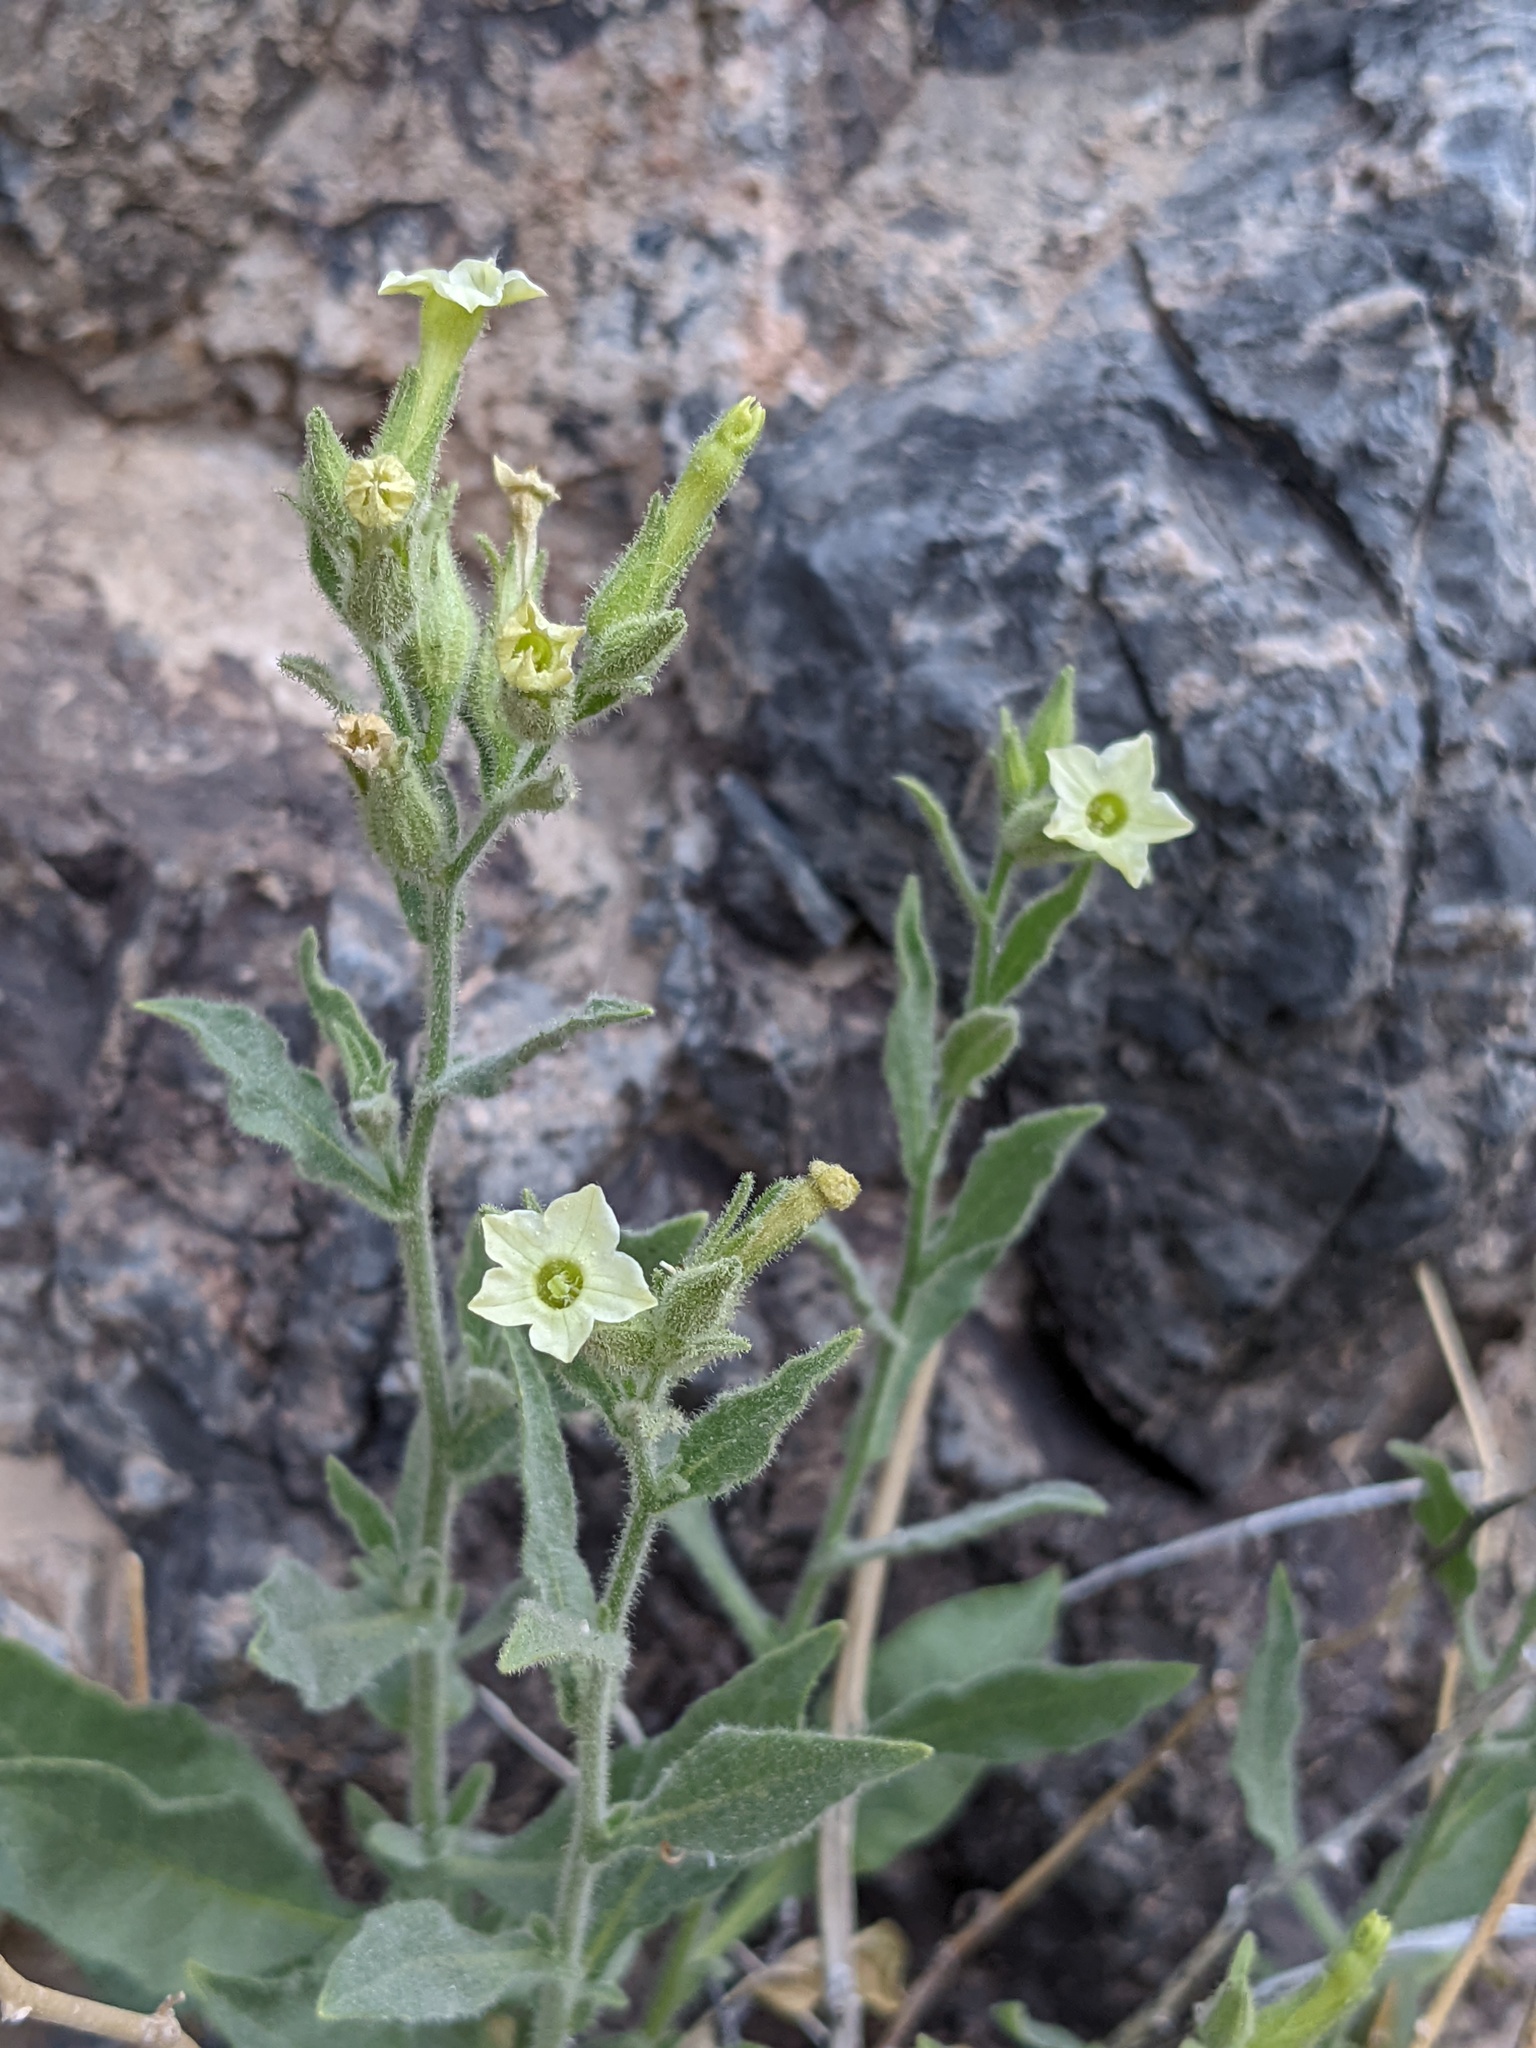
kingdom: Plantae
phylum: Tracheophyta
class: Magnoliopsida
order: Solanales
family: Solanaceae
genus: Nicotiana
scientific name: Nicotiana obtusifolia
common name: Desert tobacco
